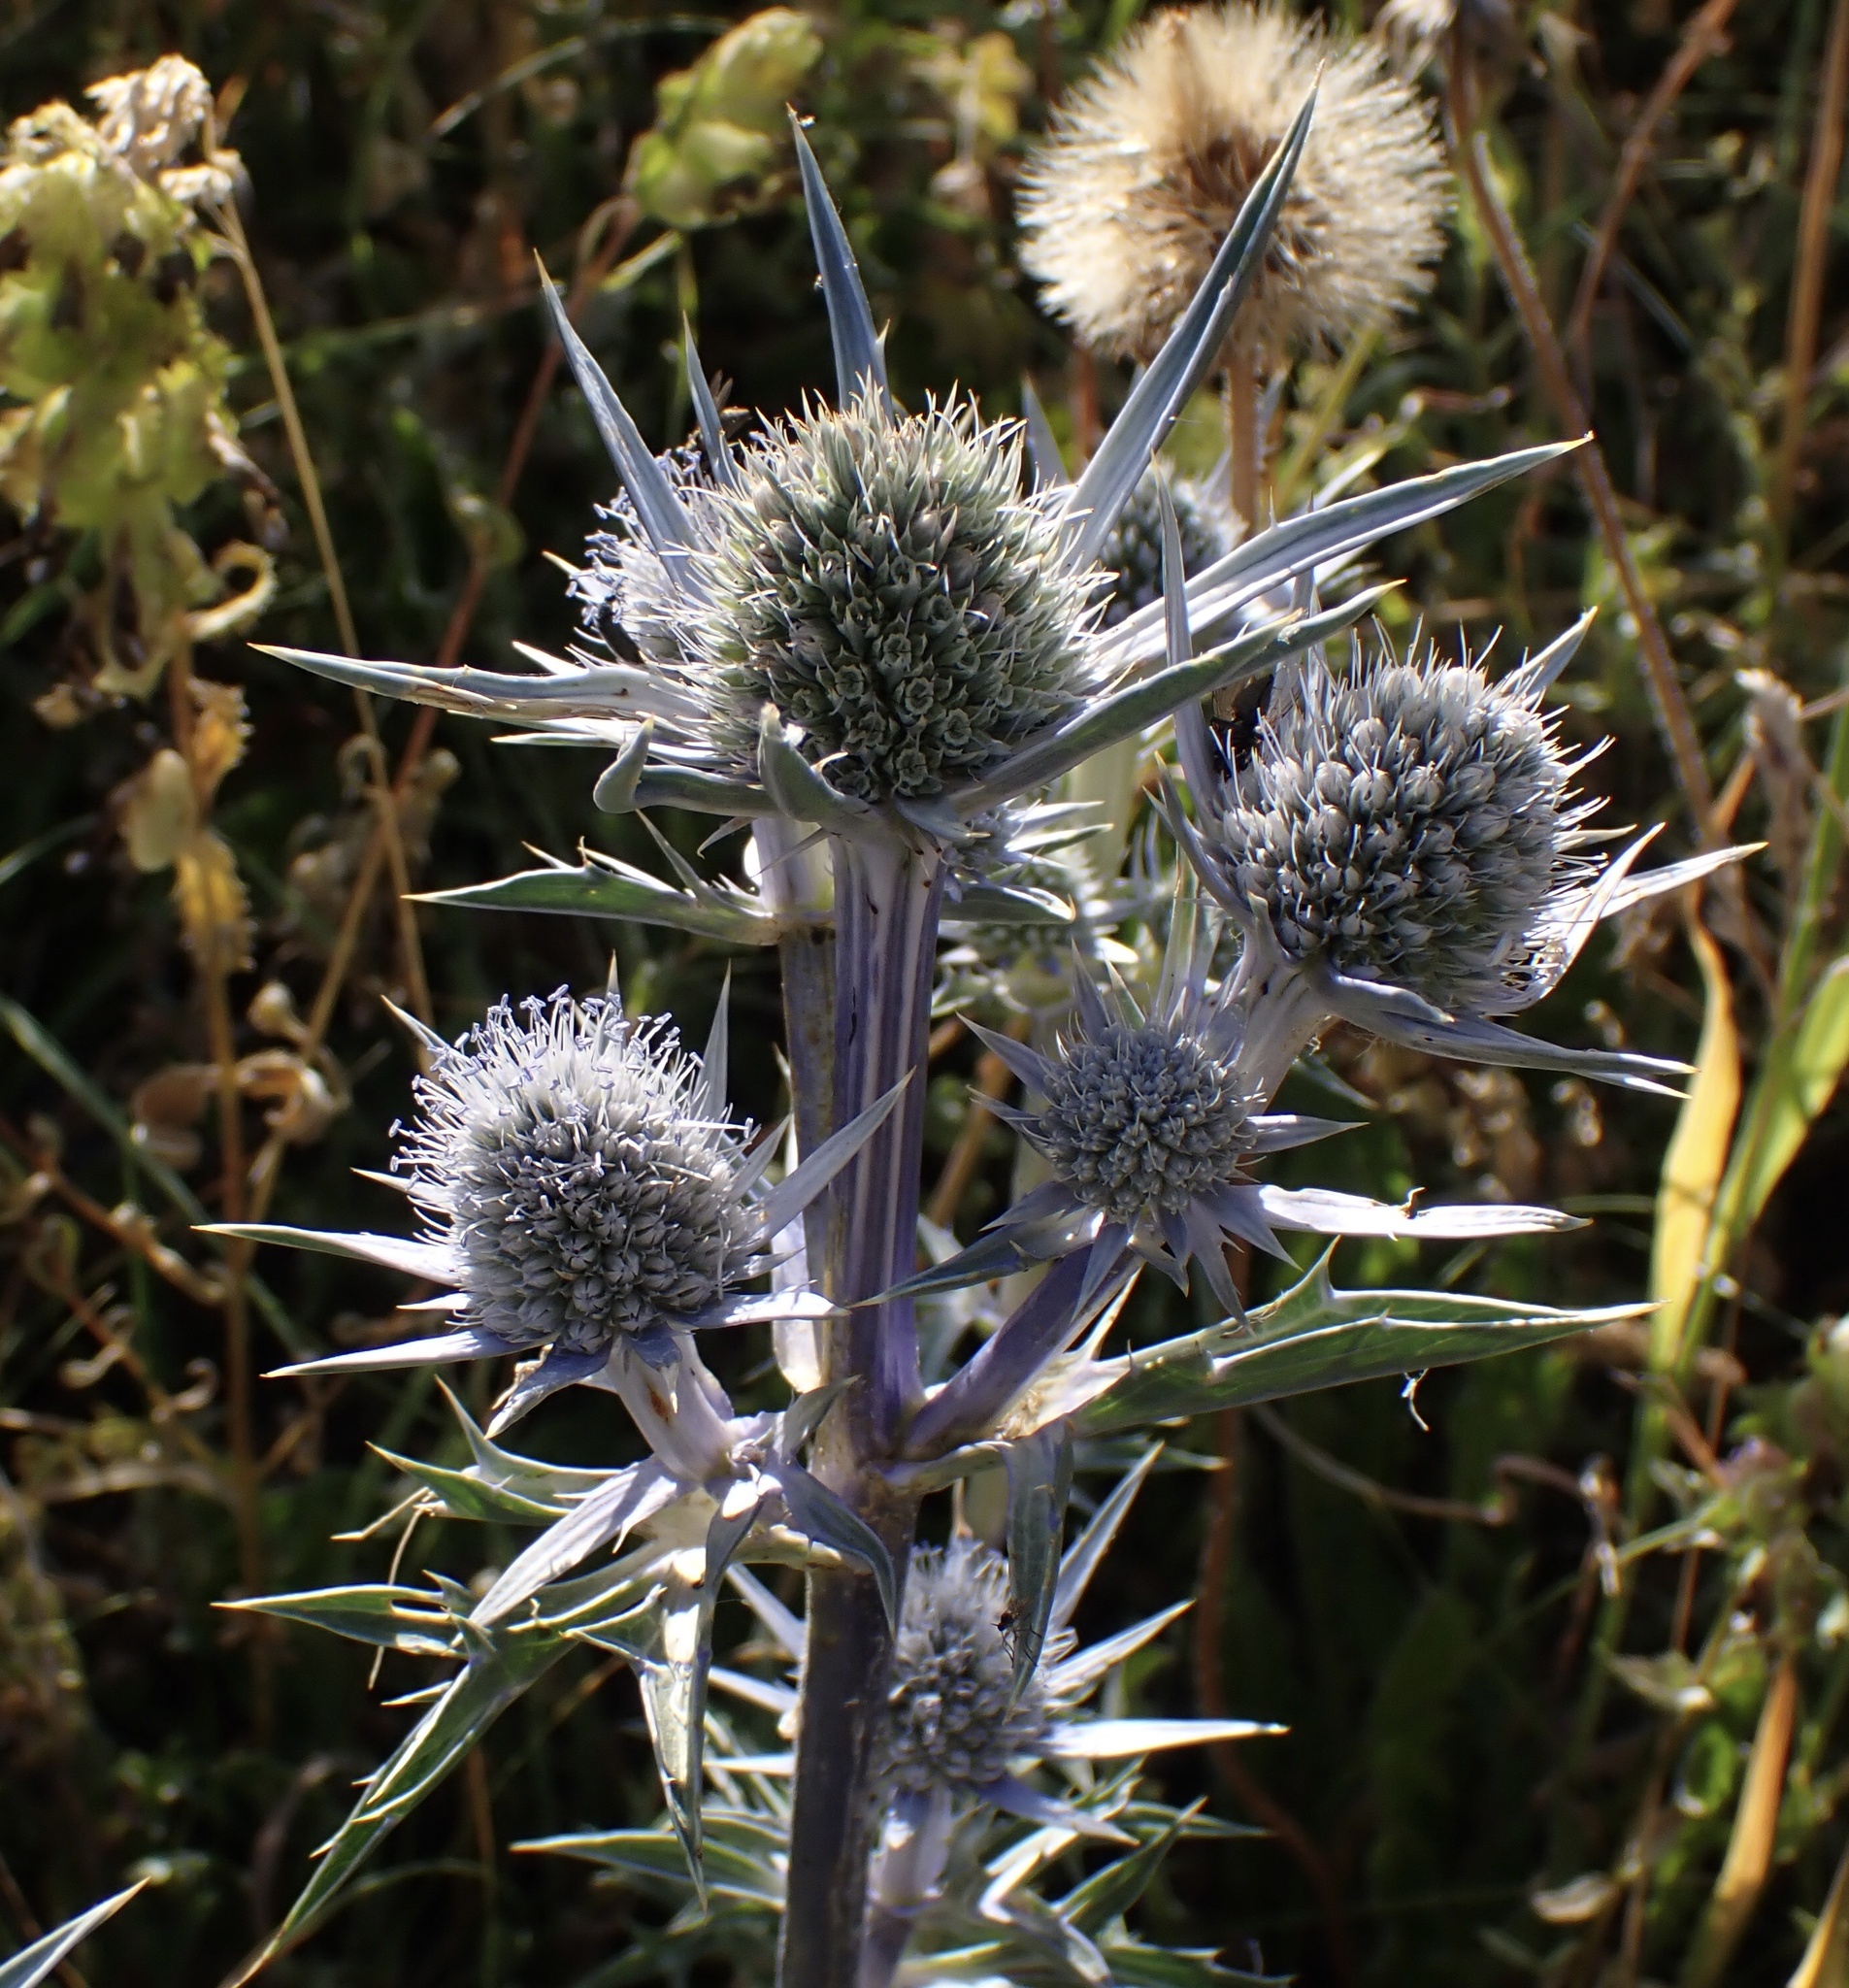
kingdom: Plantae
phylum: Tracheophyta
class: Magnoliopsida
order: Apiales
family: Apiaceae
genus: Eryngium
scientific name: Eryngium bourgatii
